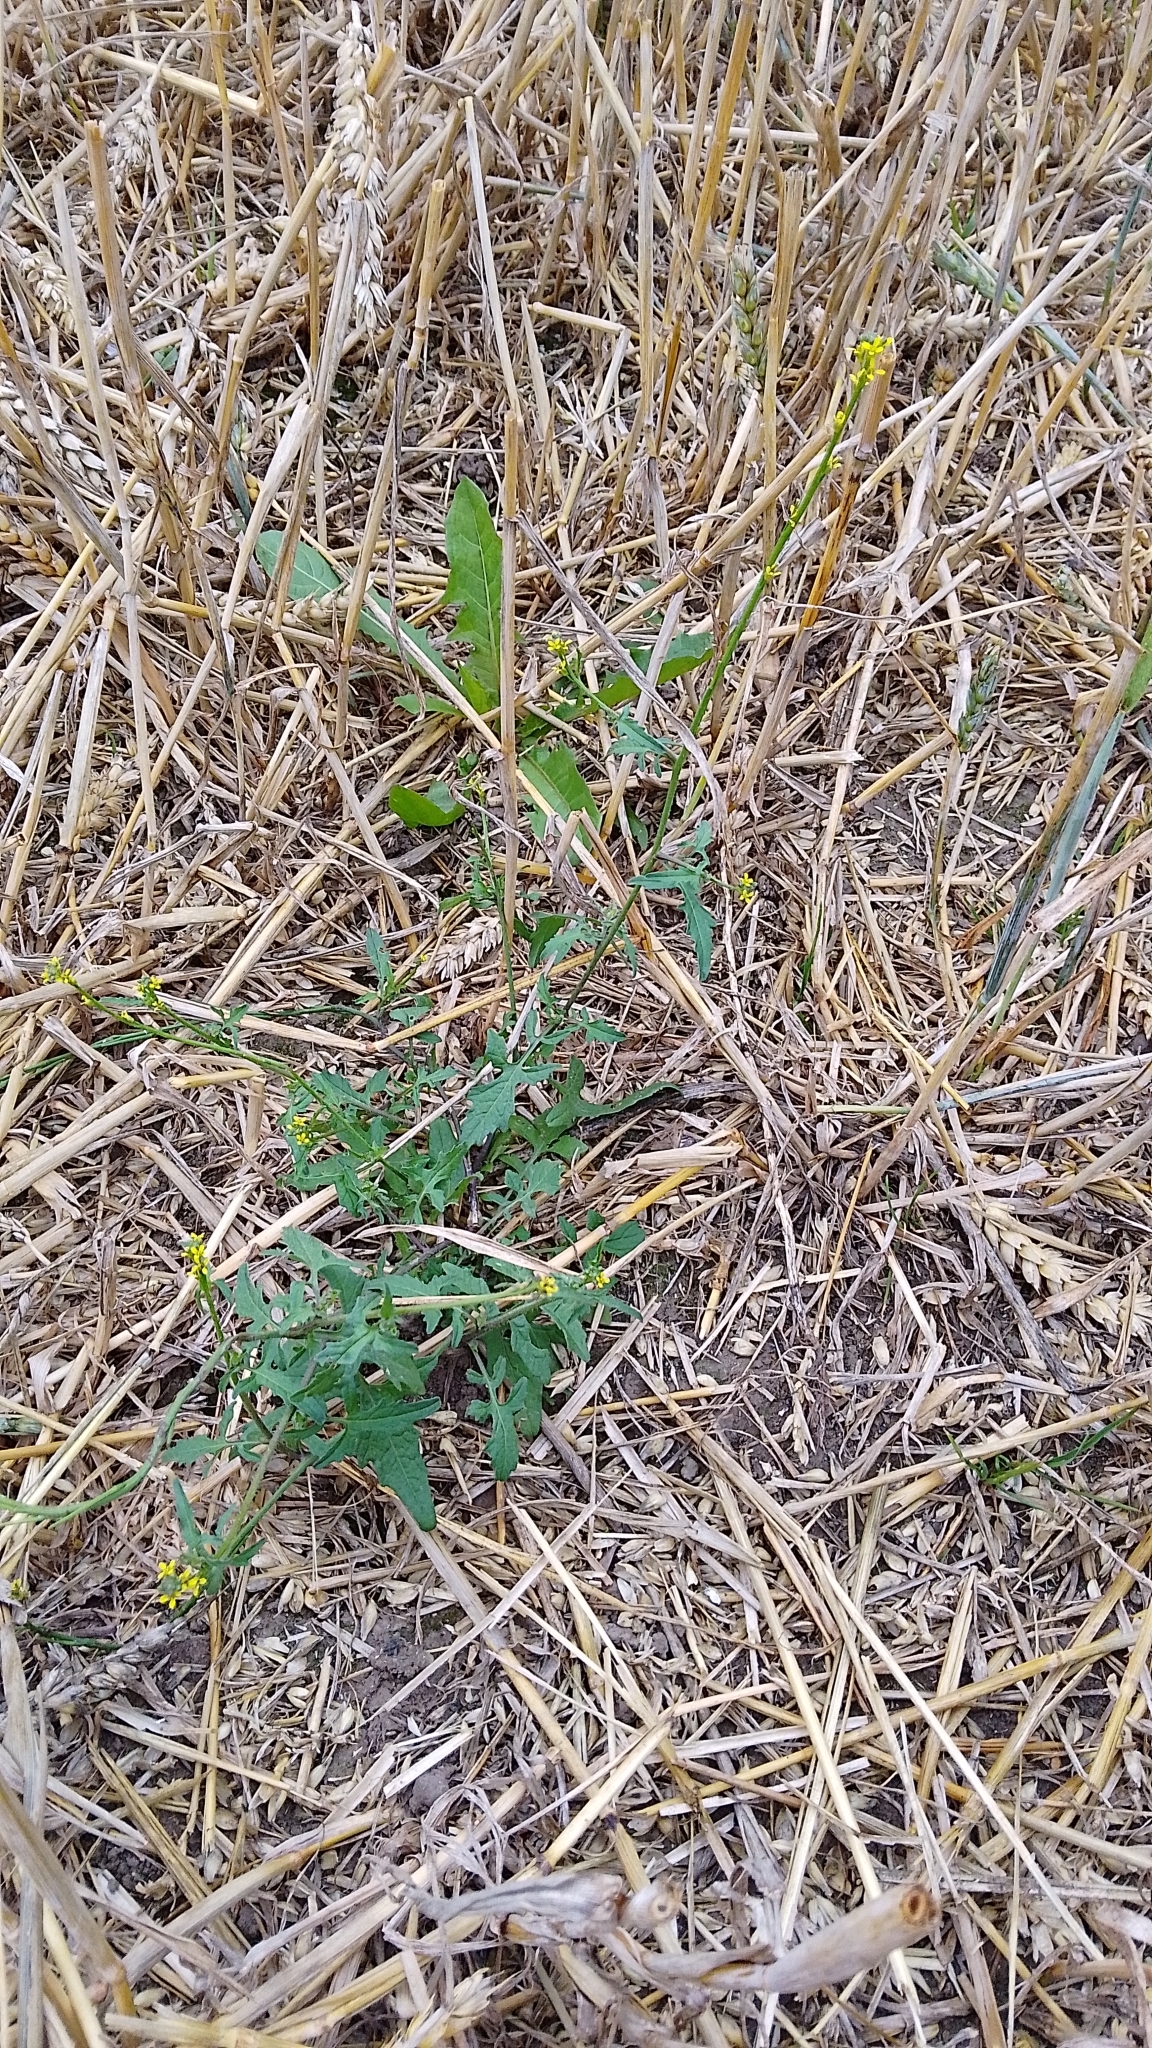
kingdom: Plantae
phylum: Tracheophyta
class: Magnoliopsida
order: Brassicales
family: Brassicaceae
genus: Sisymbrium
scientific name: Sisymbrium officinale
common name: Hedge mustard
